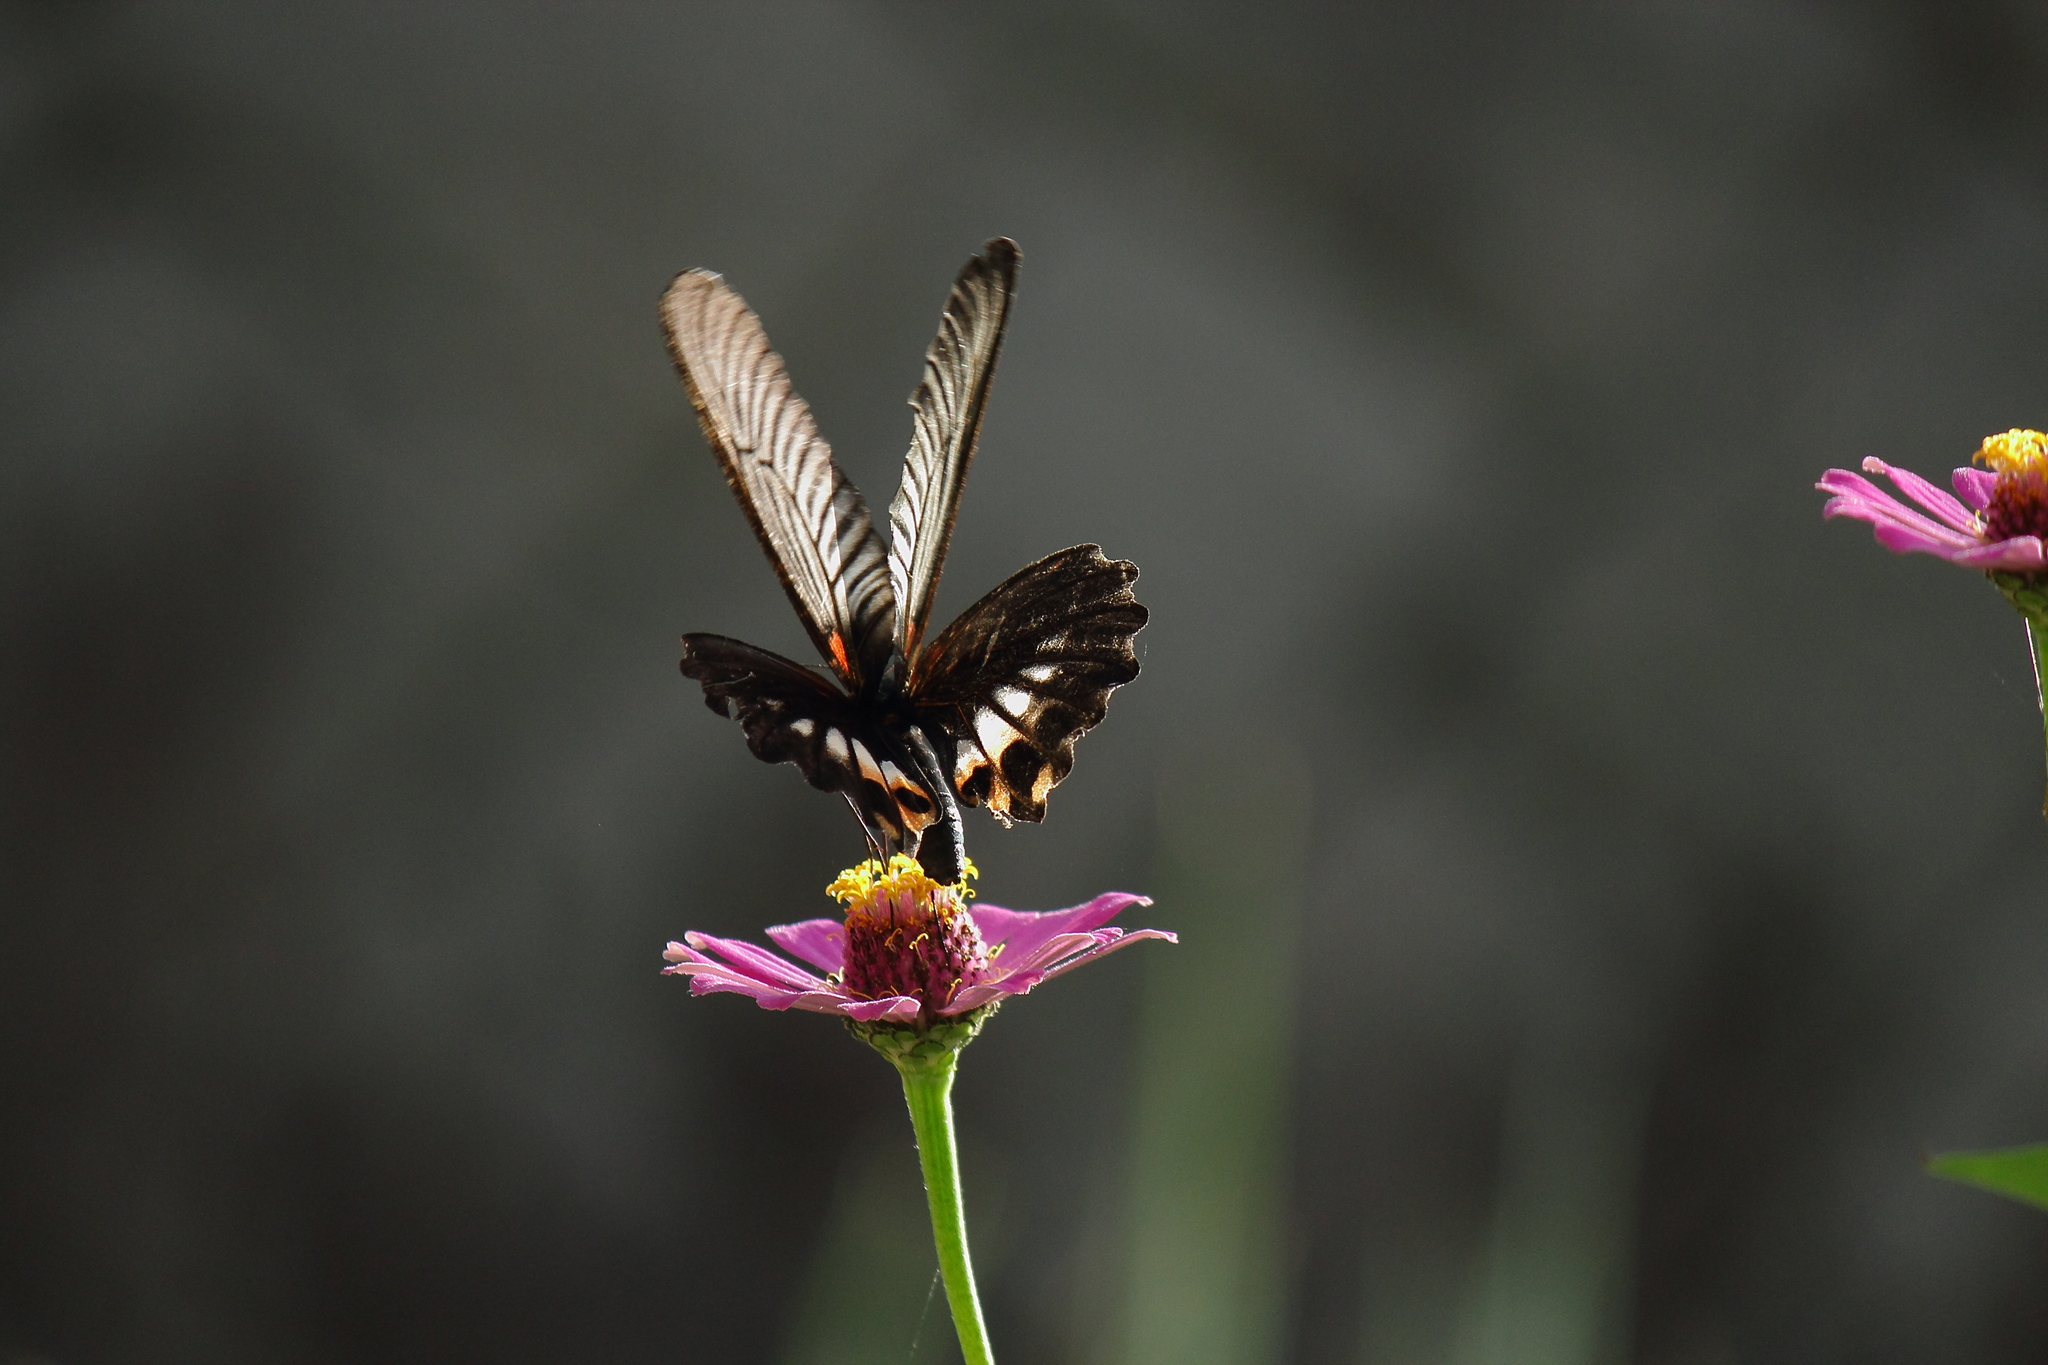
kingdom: Animalia
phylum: Arthropoda
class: Insecta
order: Lepidoptera
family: Papilionidae
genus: Papilio
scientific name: Papilio memnon
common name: Great mormon
